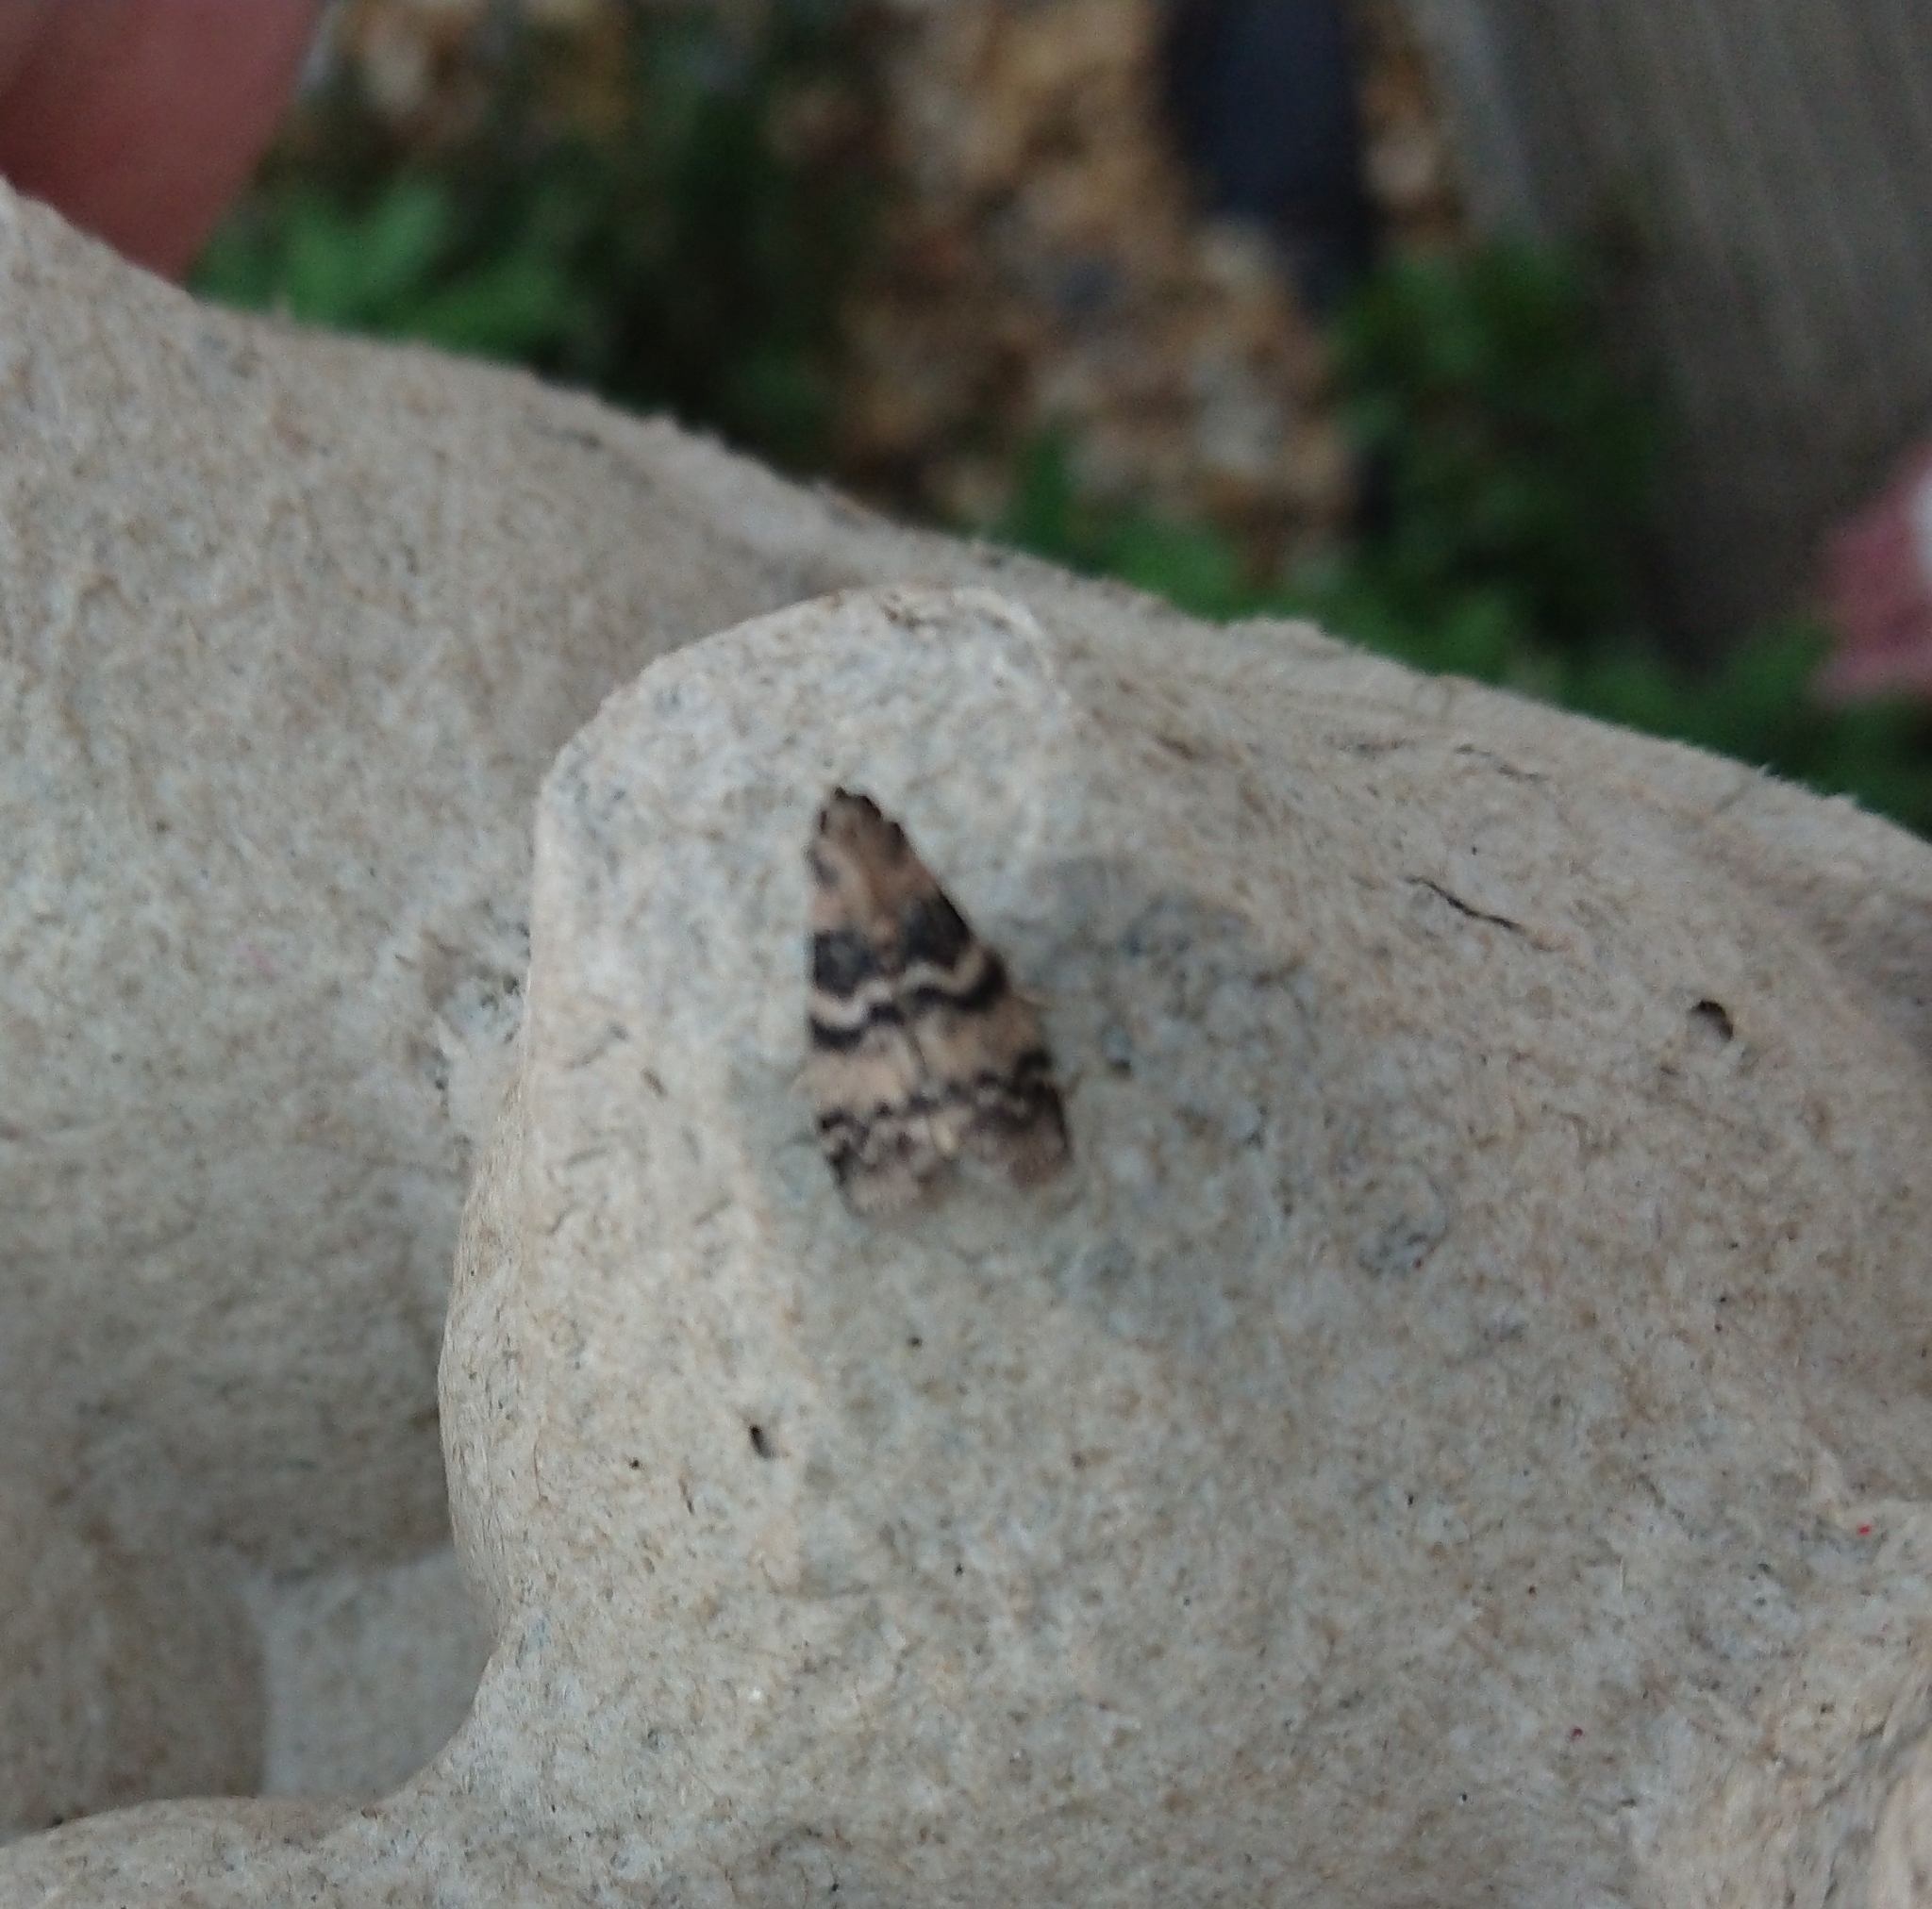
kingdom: Animalia
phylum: Arthropoda
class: Insecta
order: Lepidoptera
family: Pyralidae
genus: Euzophera
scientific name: Euzophera pinguis
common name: Ash-bark knot-horn
